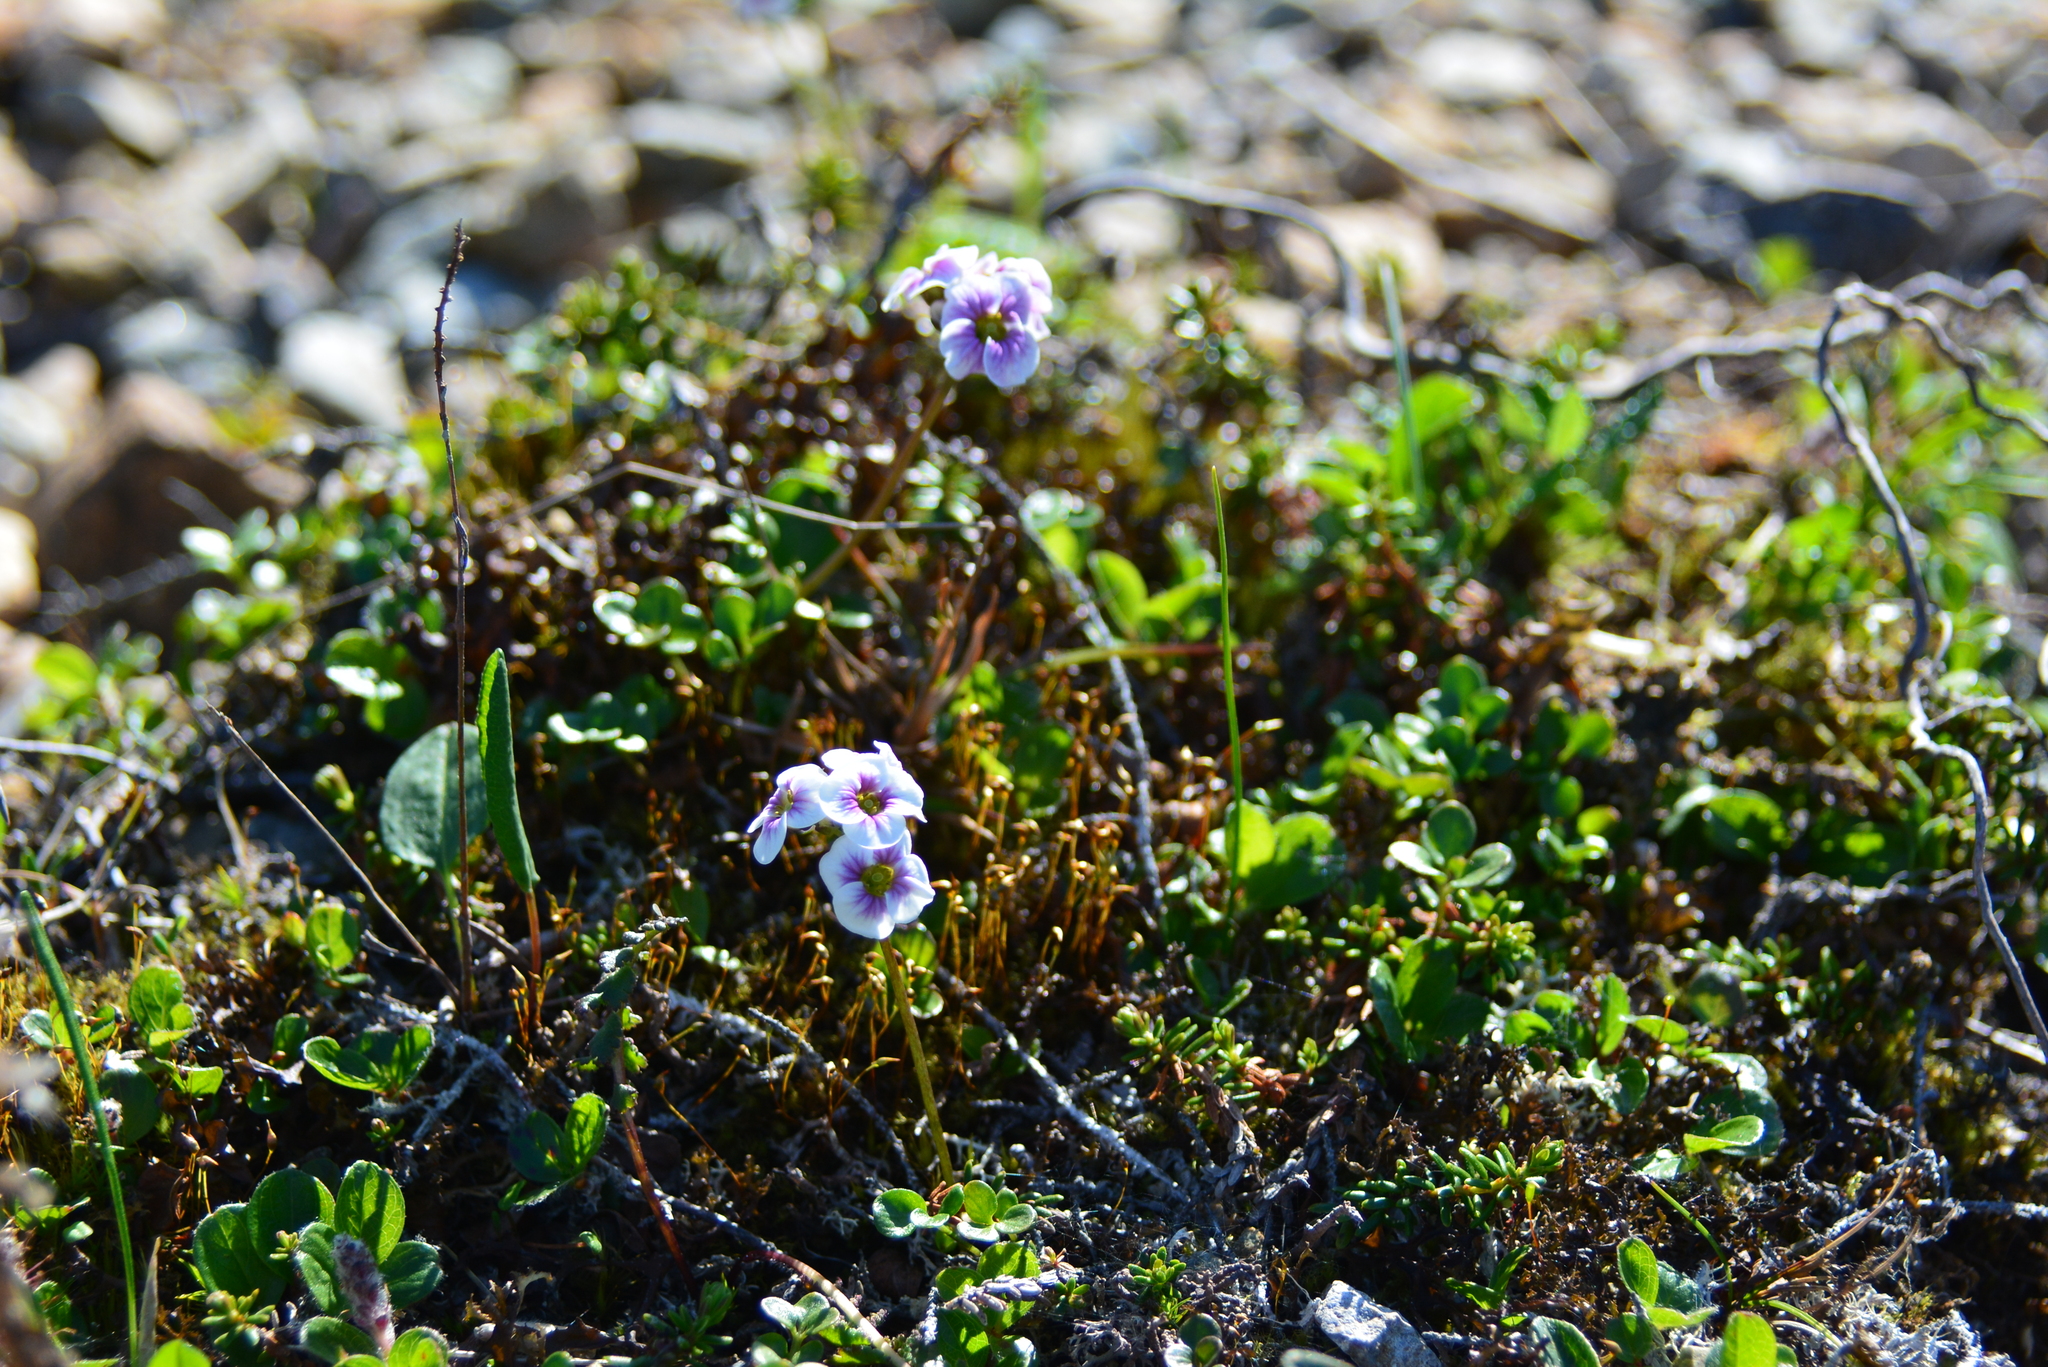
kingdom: Plantae
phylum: Tracheophyta
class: Magnoliopsida
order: Brassicales
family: Brassicaceae
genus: Cardamine
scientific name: Cardamine purpurea
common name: Purple bittercress
